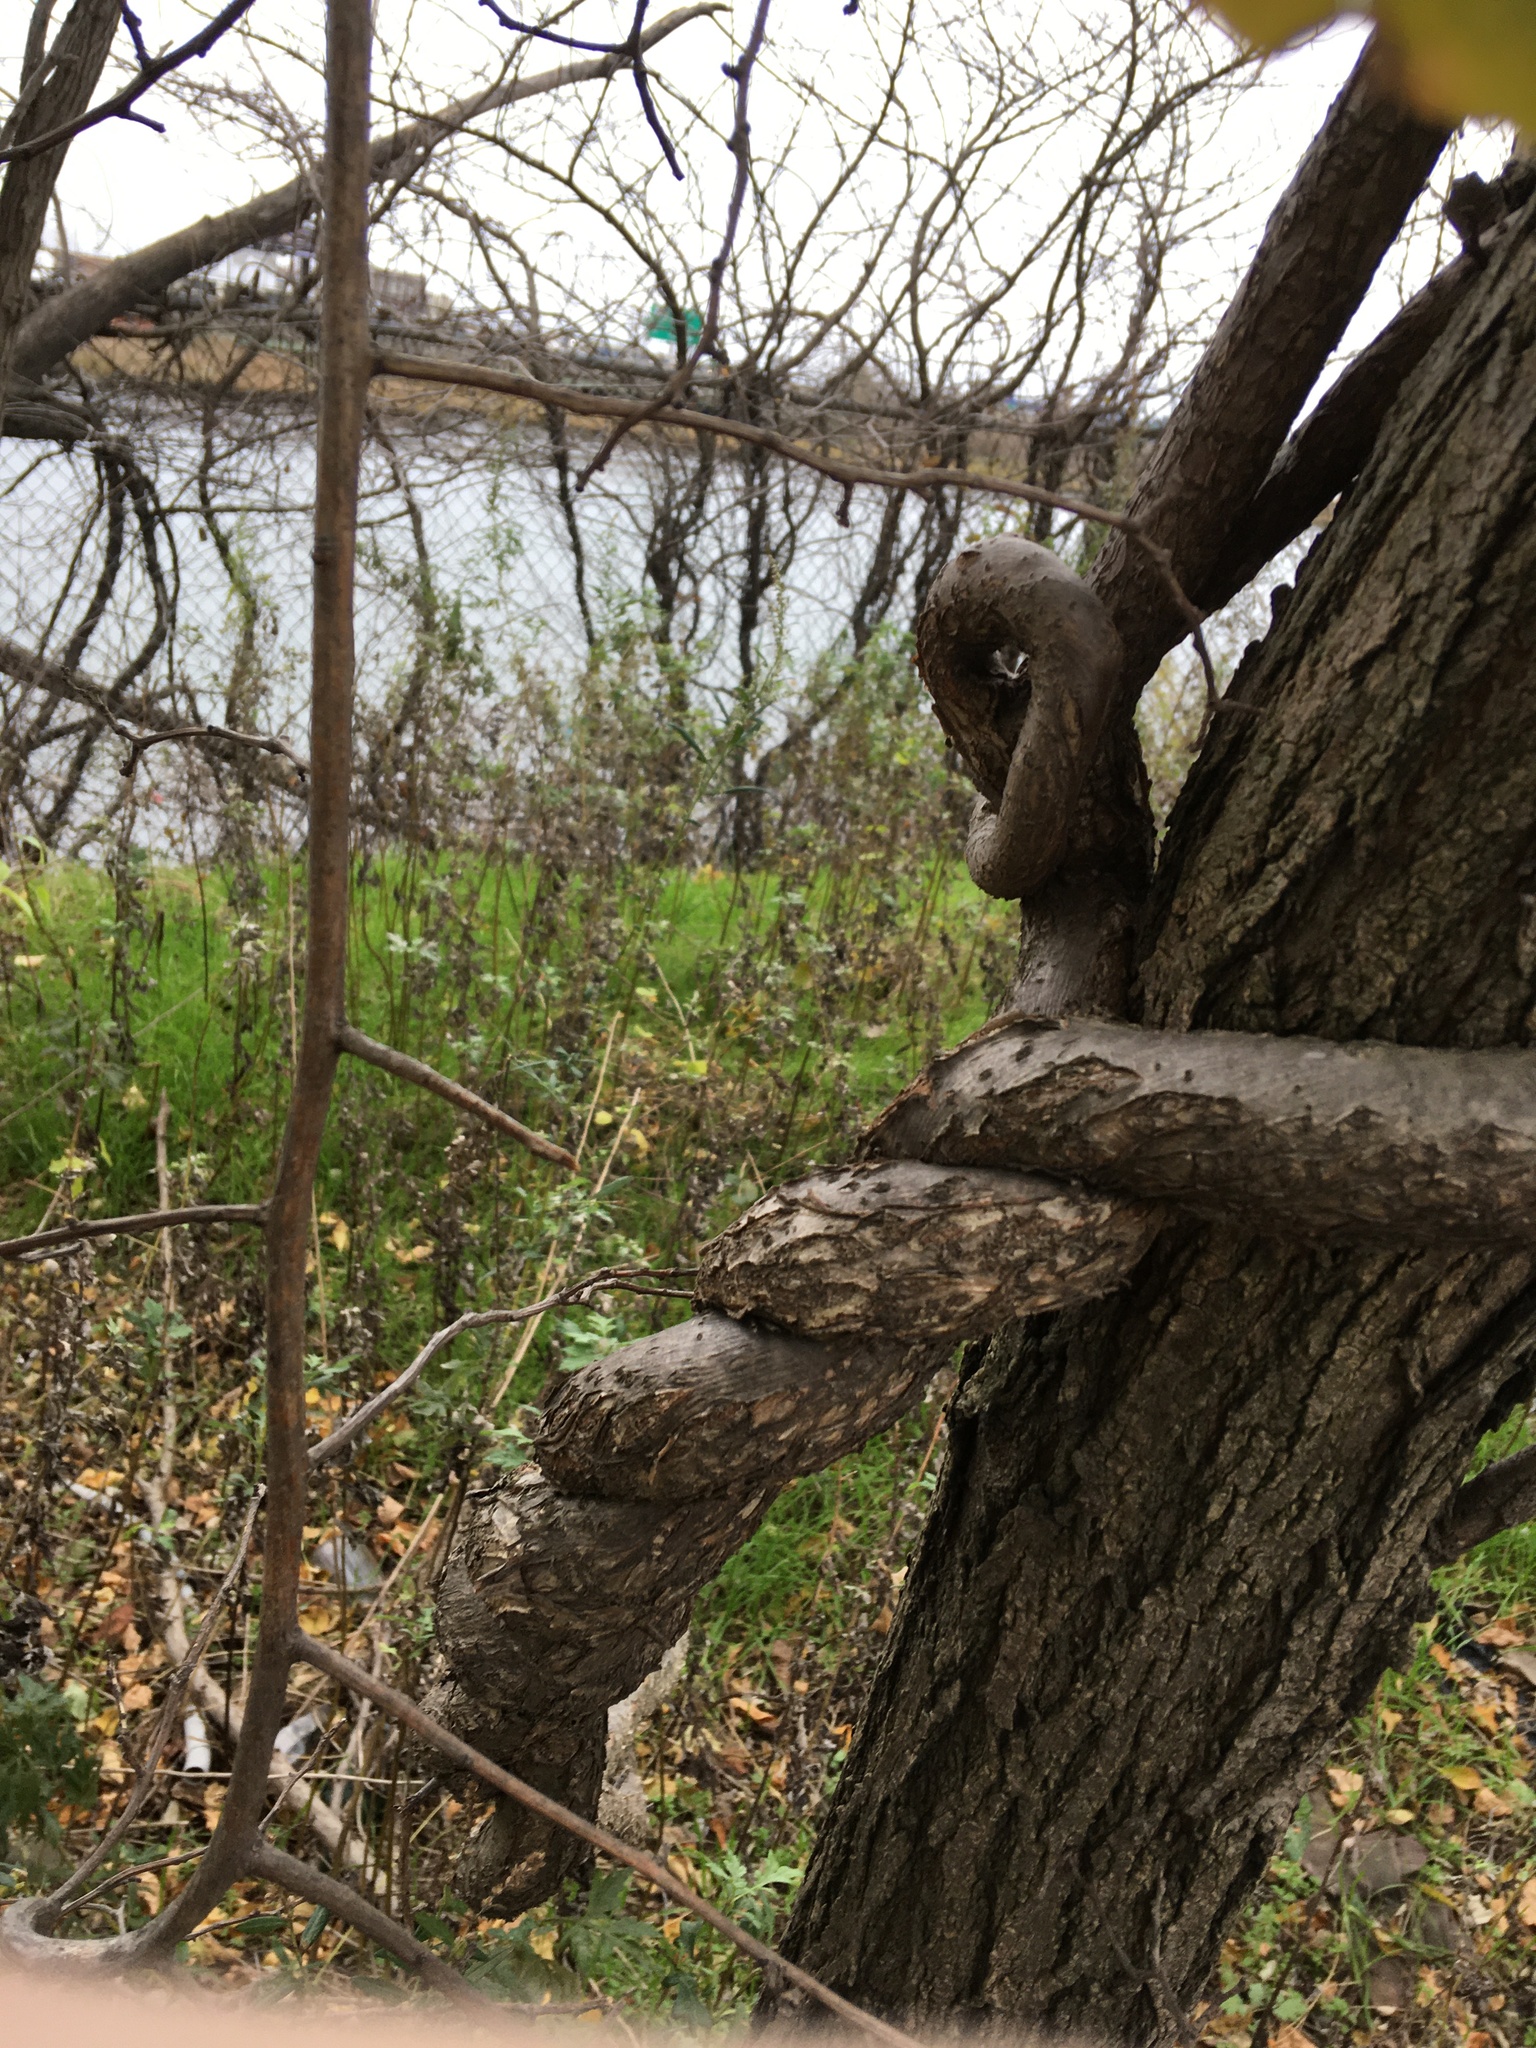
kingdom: Plantae
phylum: Tracheophyta
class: Magnoliopsida
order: Celastrales
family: Celastraceae
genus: Celastrus
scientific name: Celastrus orbiculatus
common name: Oriental bittersweet
